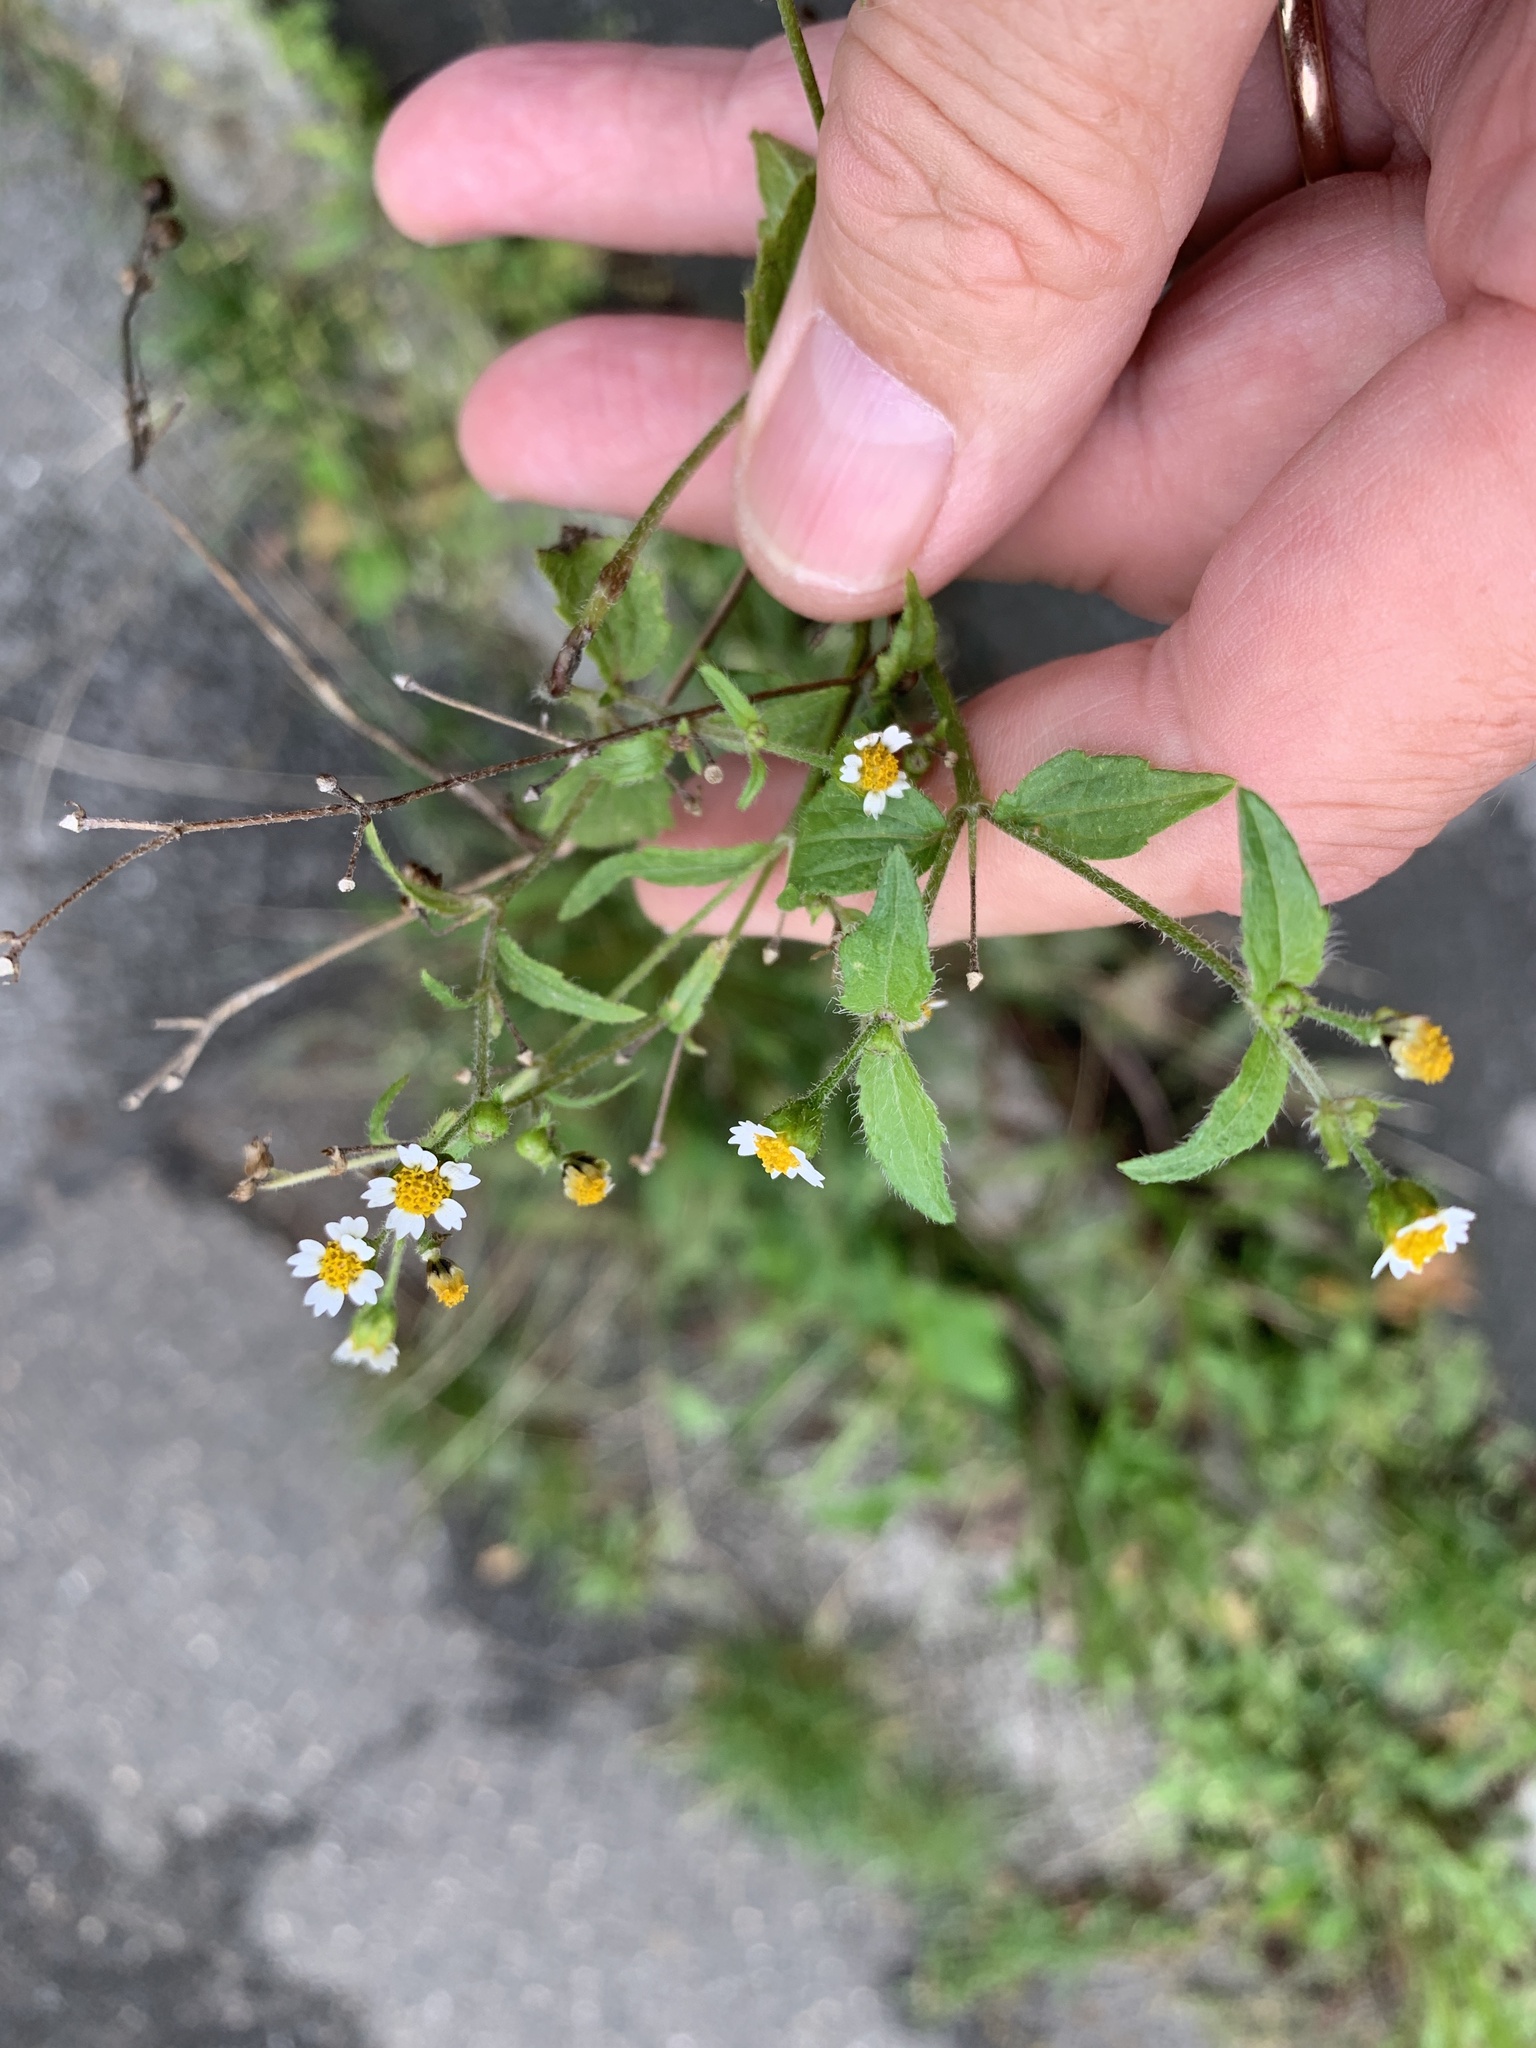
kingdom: Plantae
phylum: Tracheophyta
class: Magnoliopsida
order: Asterales
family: Asteraceae
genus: Galinsoga
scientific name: Galinsoga quadriradiata
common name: Shaggy soldier
